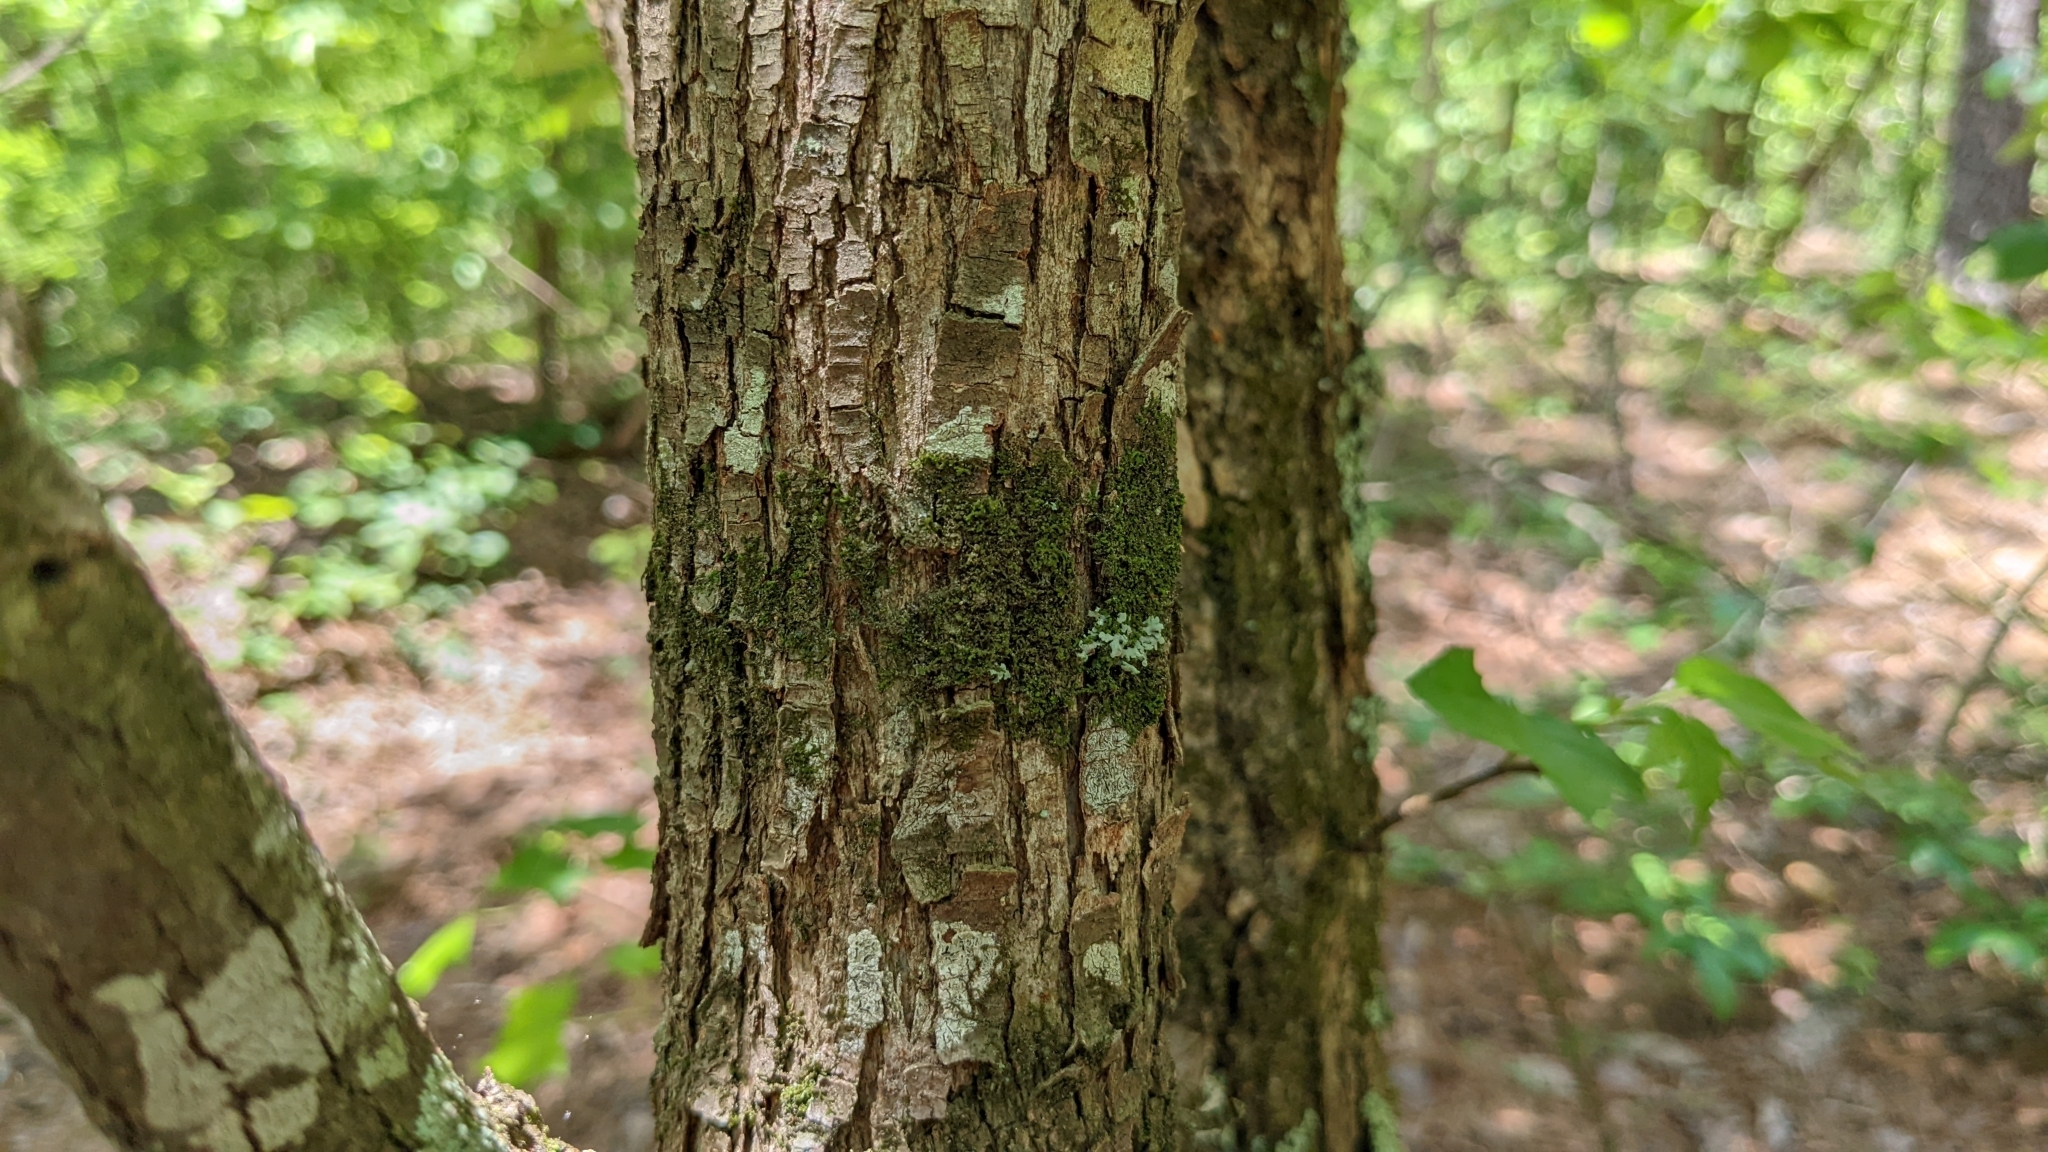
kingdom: Plantae
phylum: Tracheophyta
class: Magnoliopsida
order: Fagales
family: Betulaceae
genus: Ostrya
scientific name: Ostrya virginiana
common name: Ironwood
